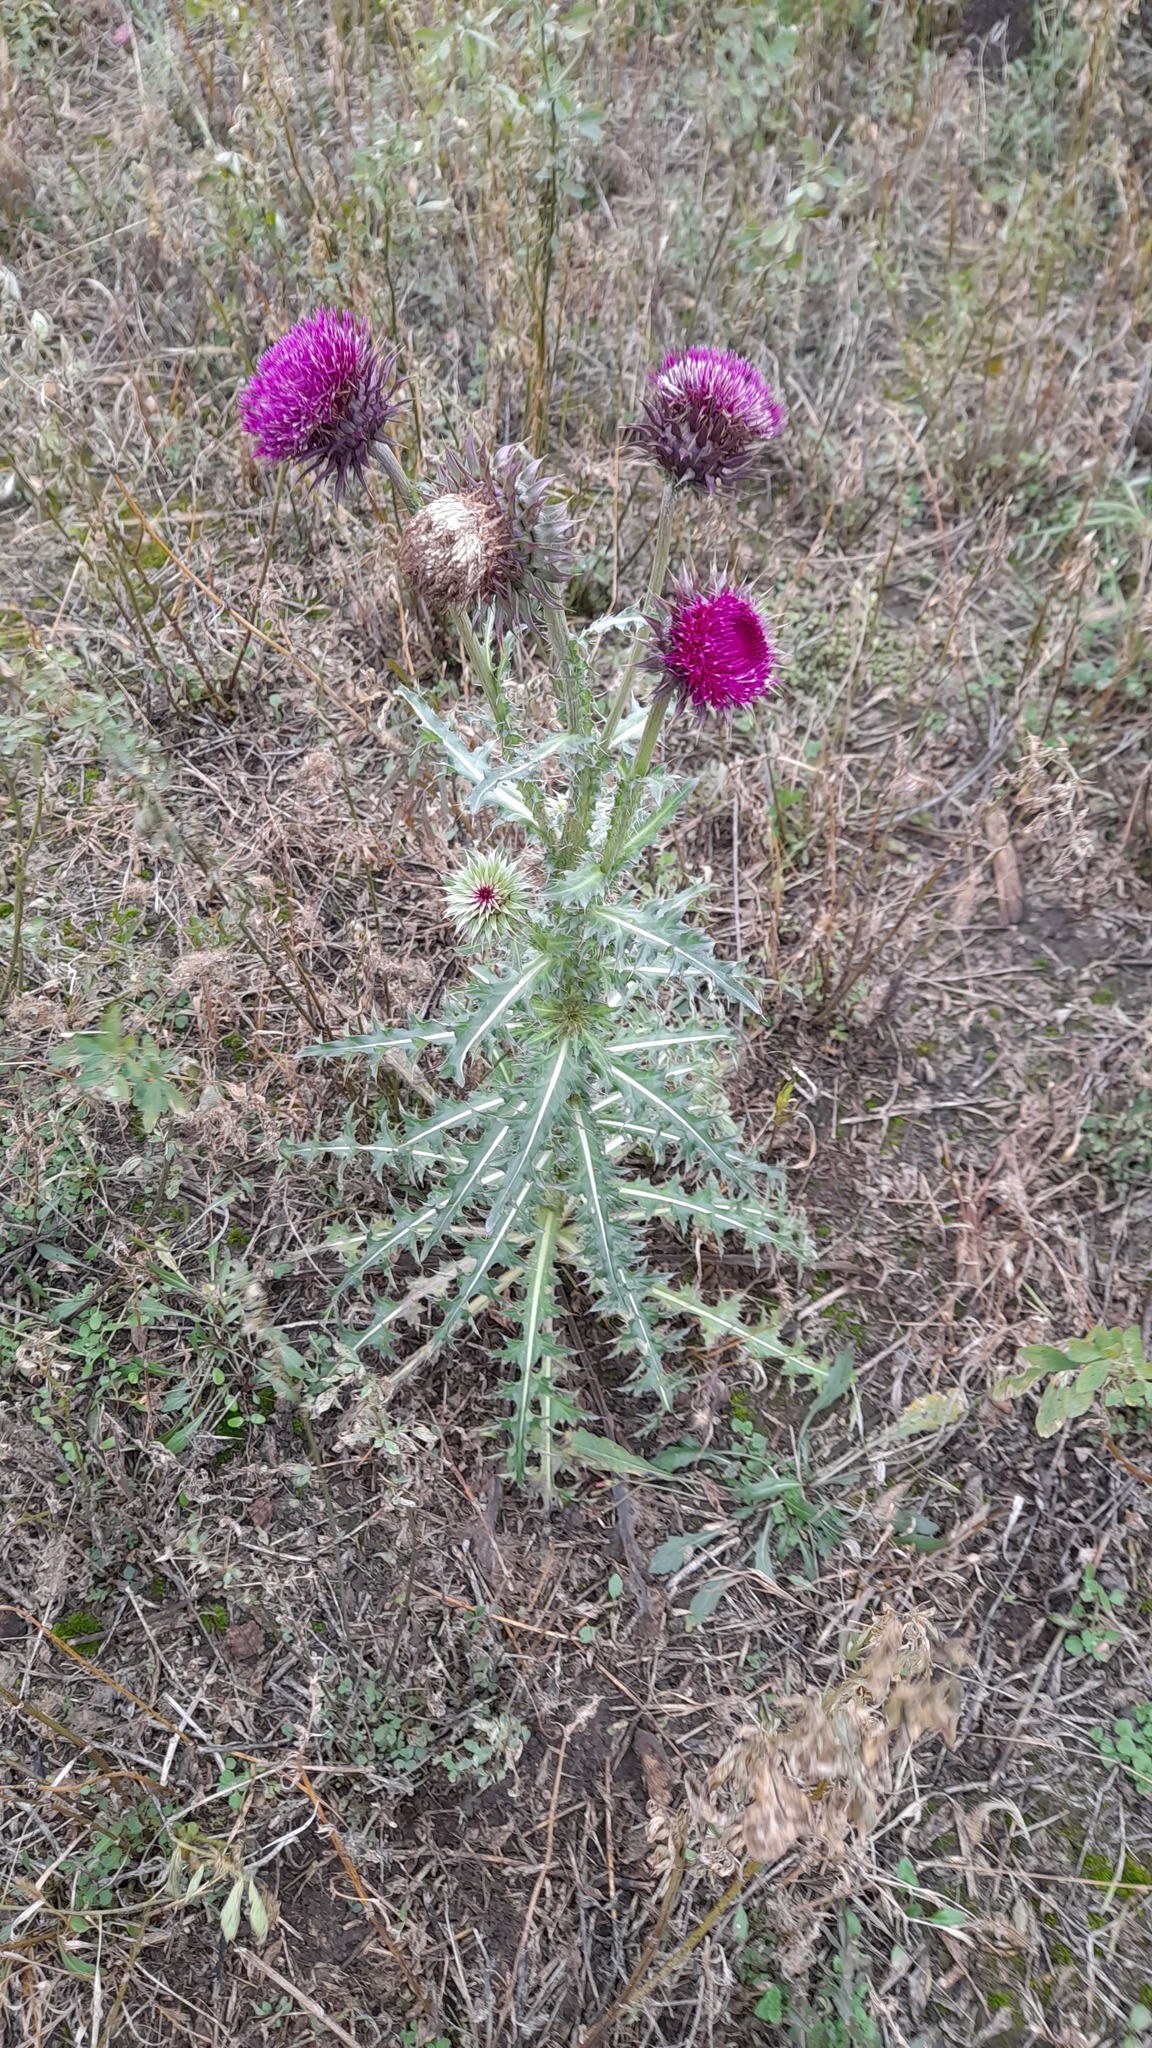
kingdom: Plantae
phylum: Tracheophyta
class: Magnoliopsida
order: Asterales
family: Asteraceae
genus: Carduus
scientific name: Carduus nutans
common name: Musk thistle
